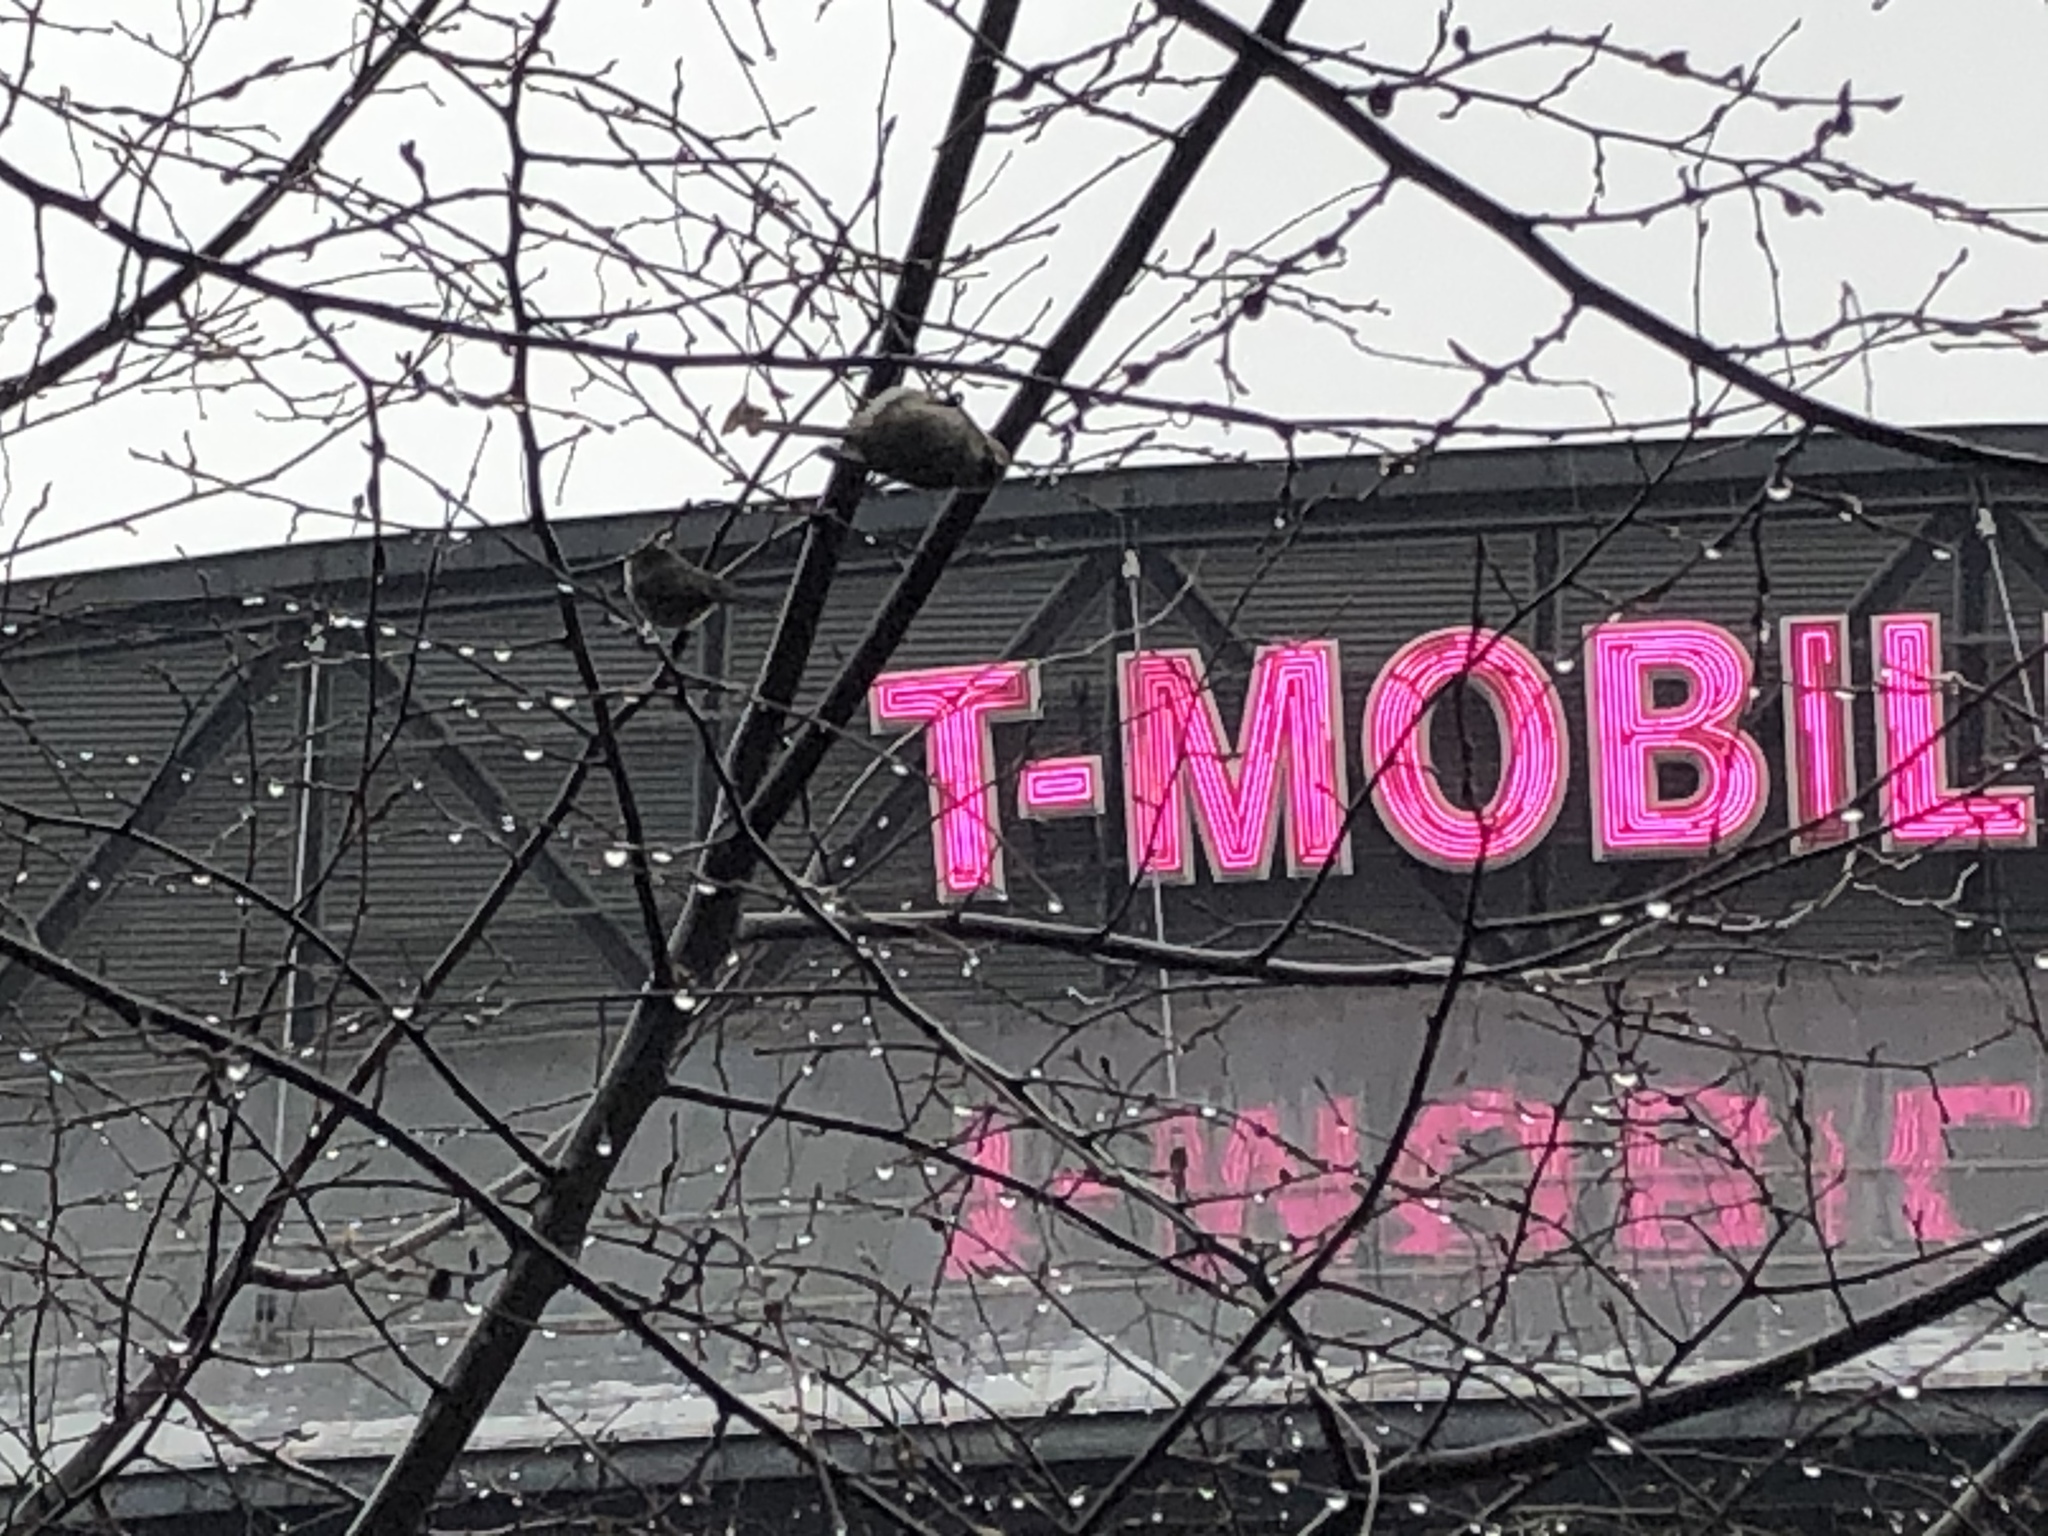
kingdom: Animalia
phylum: Chordata
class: Aves
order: Passeriformes
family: Aegithalidae
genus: Psaltriparus
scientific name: Psaltriparus minimus
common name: American bushtit
